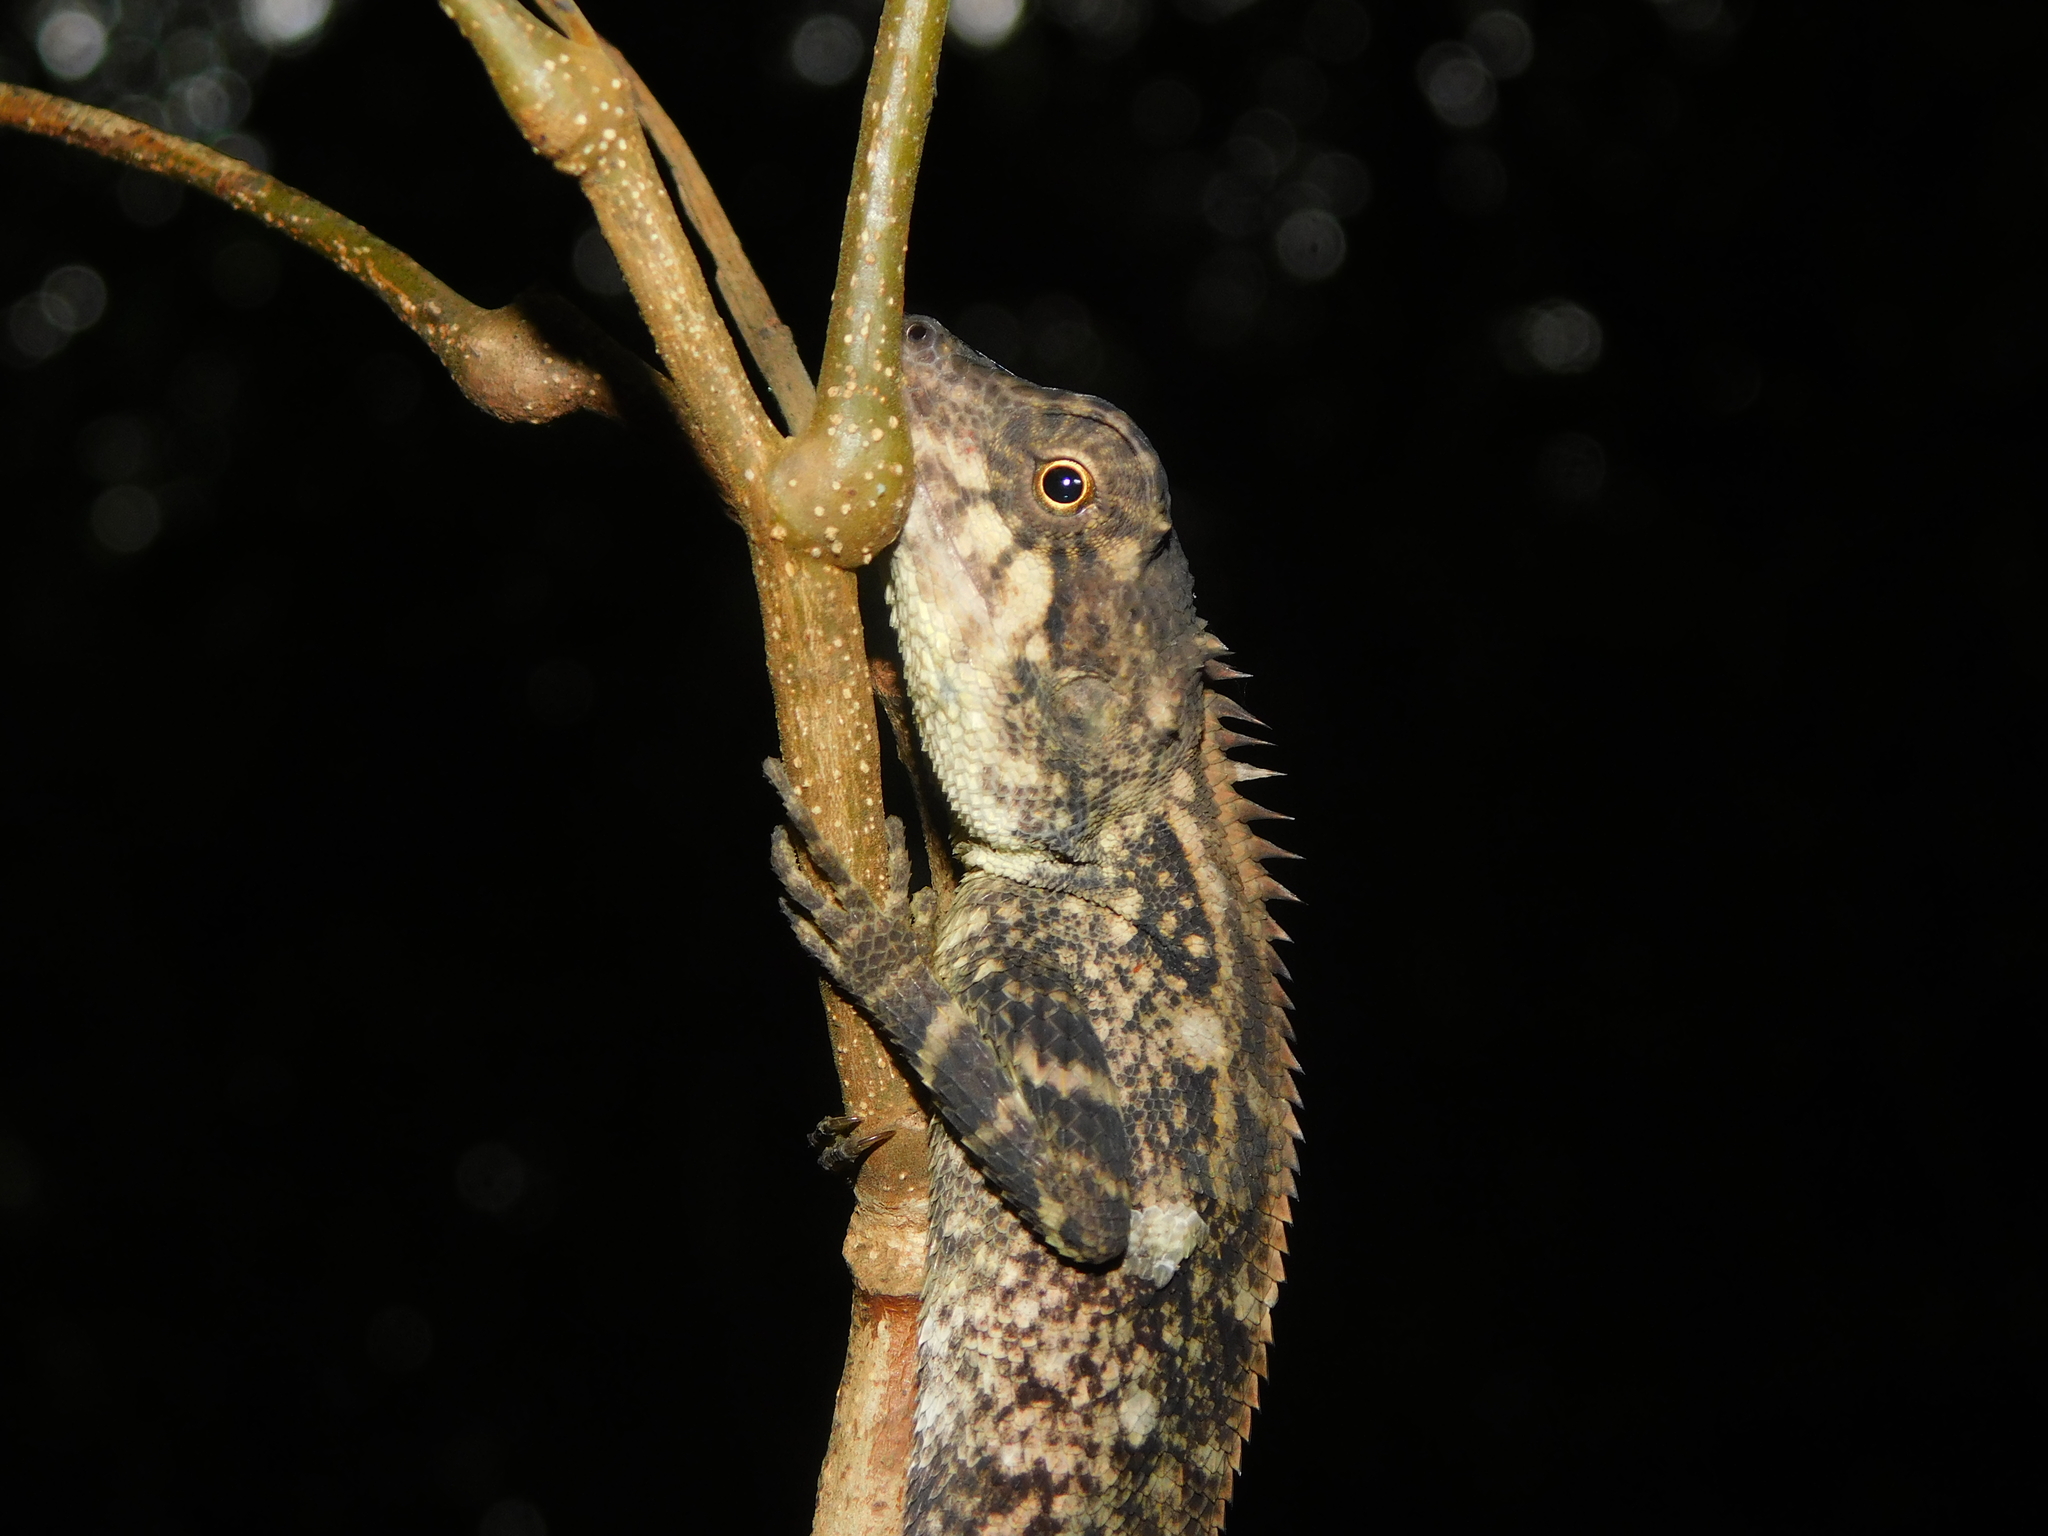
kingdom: Animalia
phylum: Chordata
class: Squamata
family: Agamidae
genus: Monilesaurus
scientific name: Monilesaurus rouxii
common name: Roux's forest lizard
